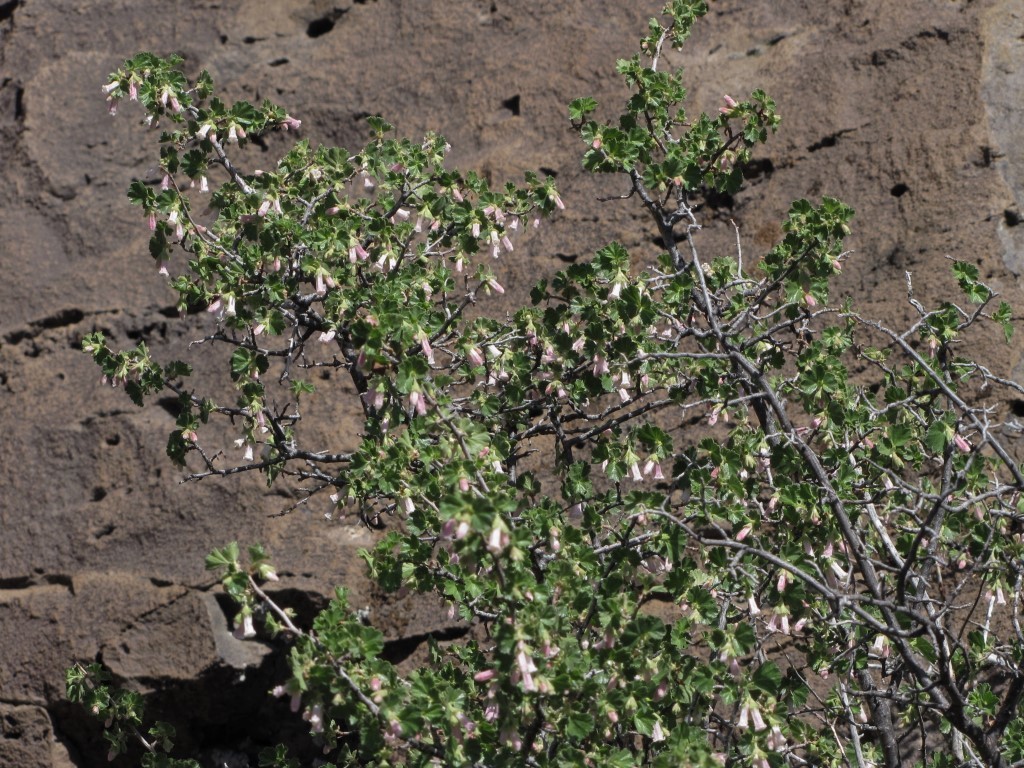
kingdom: Plantae
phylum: Tracheophyta
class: Magnoliopsida
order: Saxifragales
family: Grossulariaceae
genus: Ribes
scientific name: Ribes cereum
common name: Wax currant
